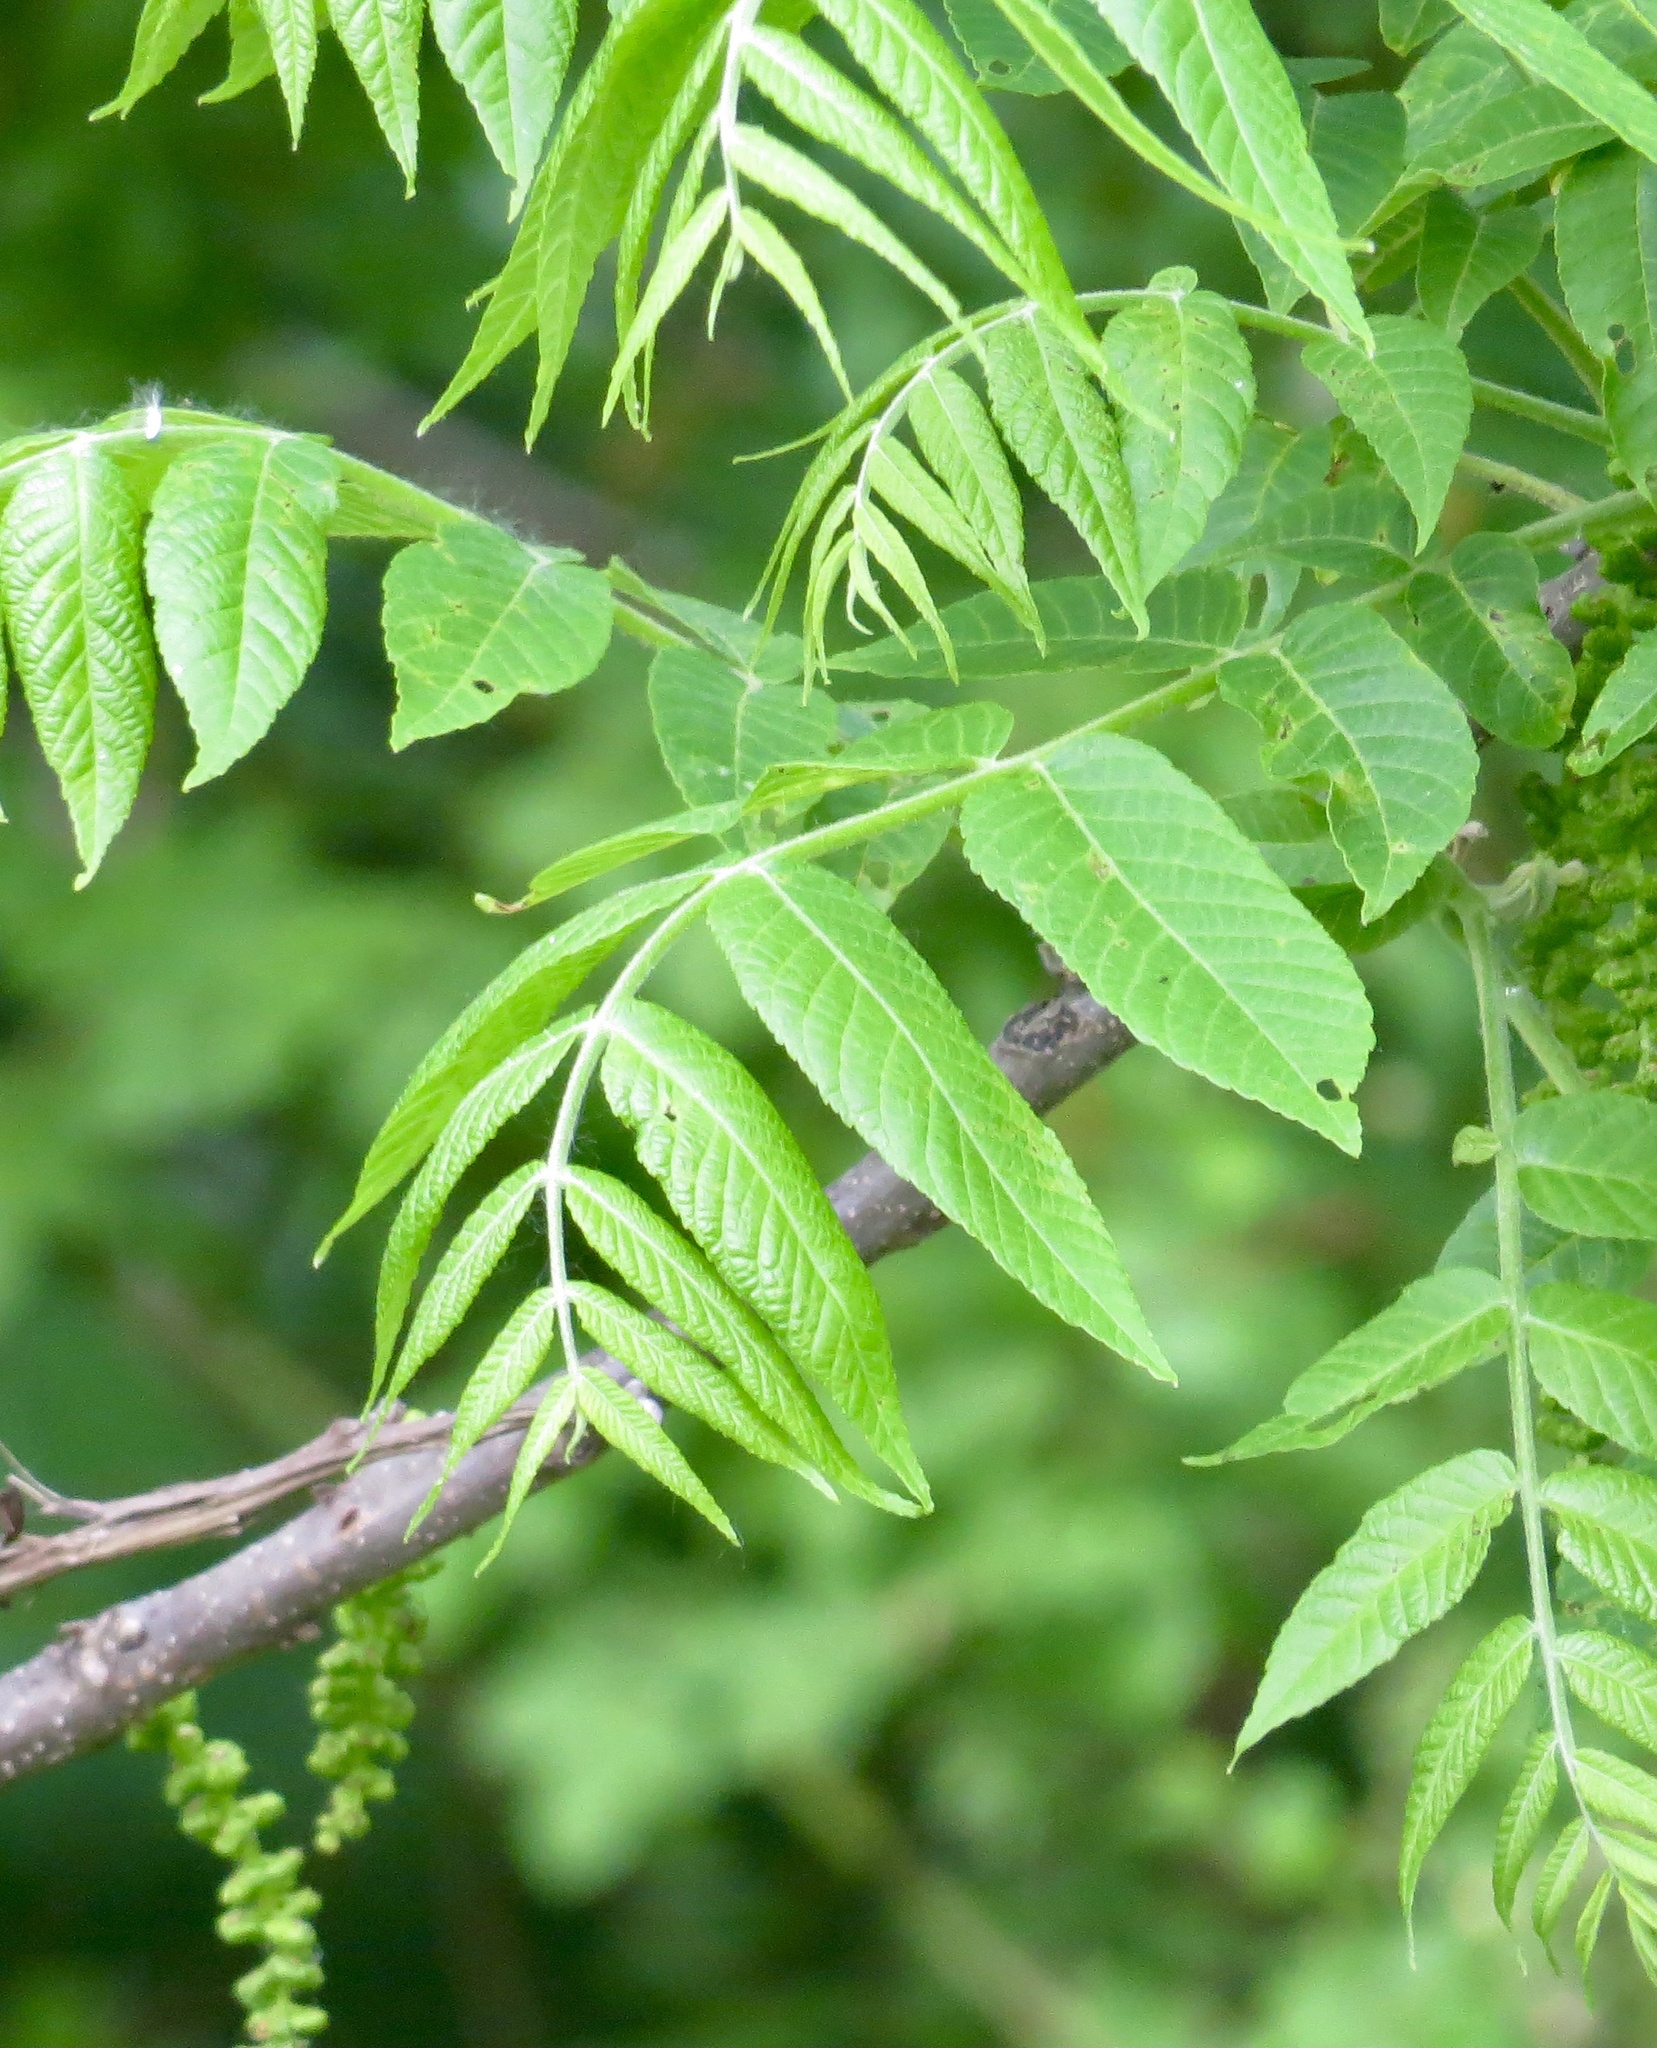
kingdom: Plantae
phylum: Tracheophyta
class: Magnoliopsida
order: Fagales
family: Juglandaceae
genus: Juglans
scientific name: Juglans nigra
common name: Black walnut
